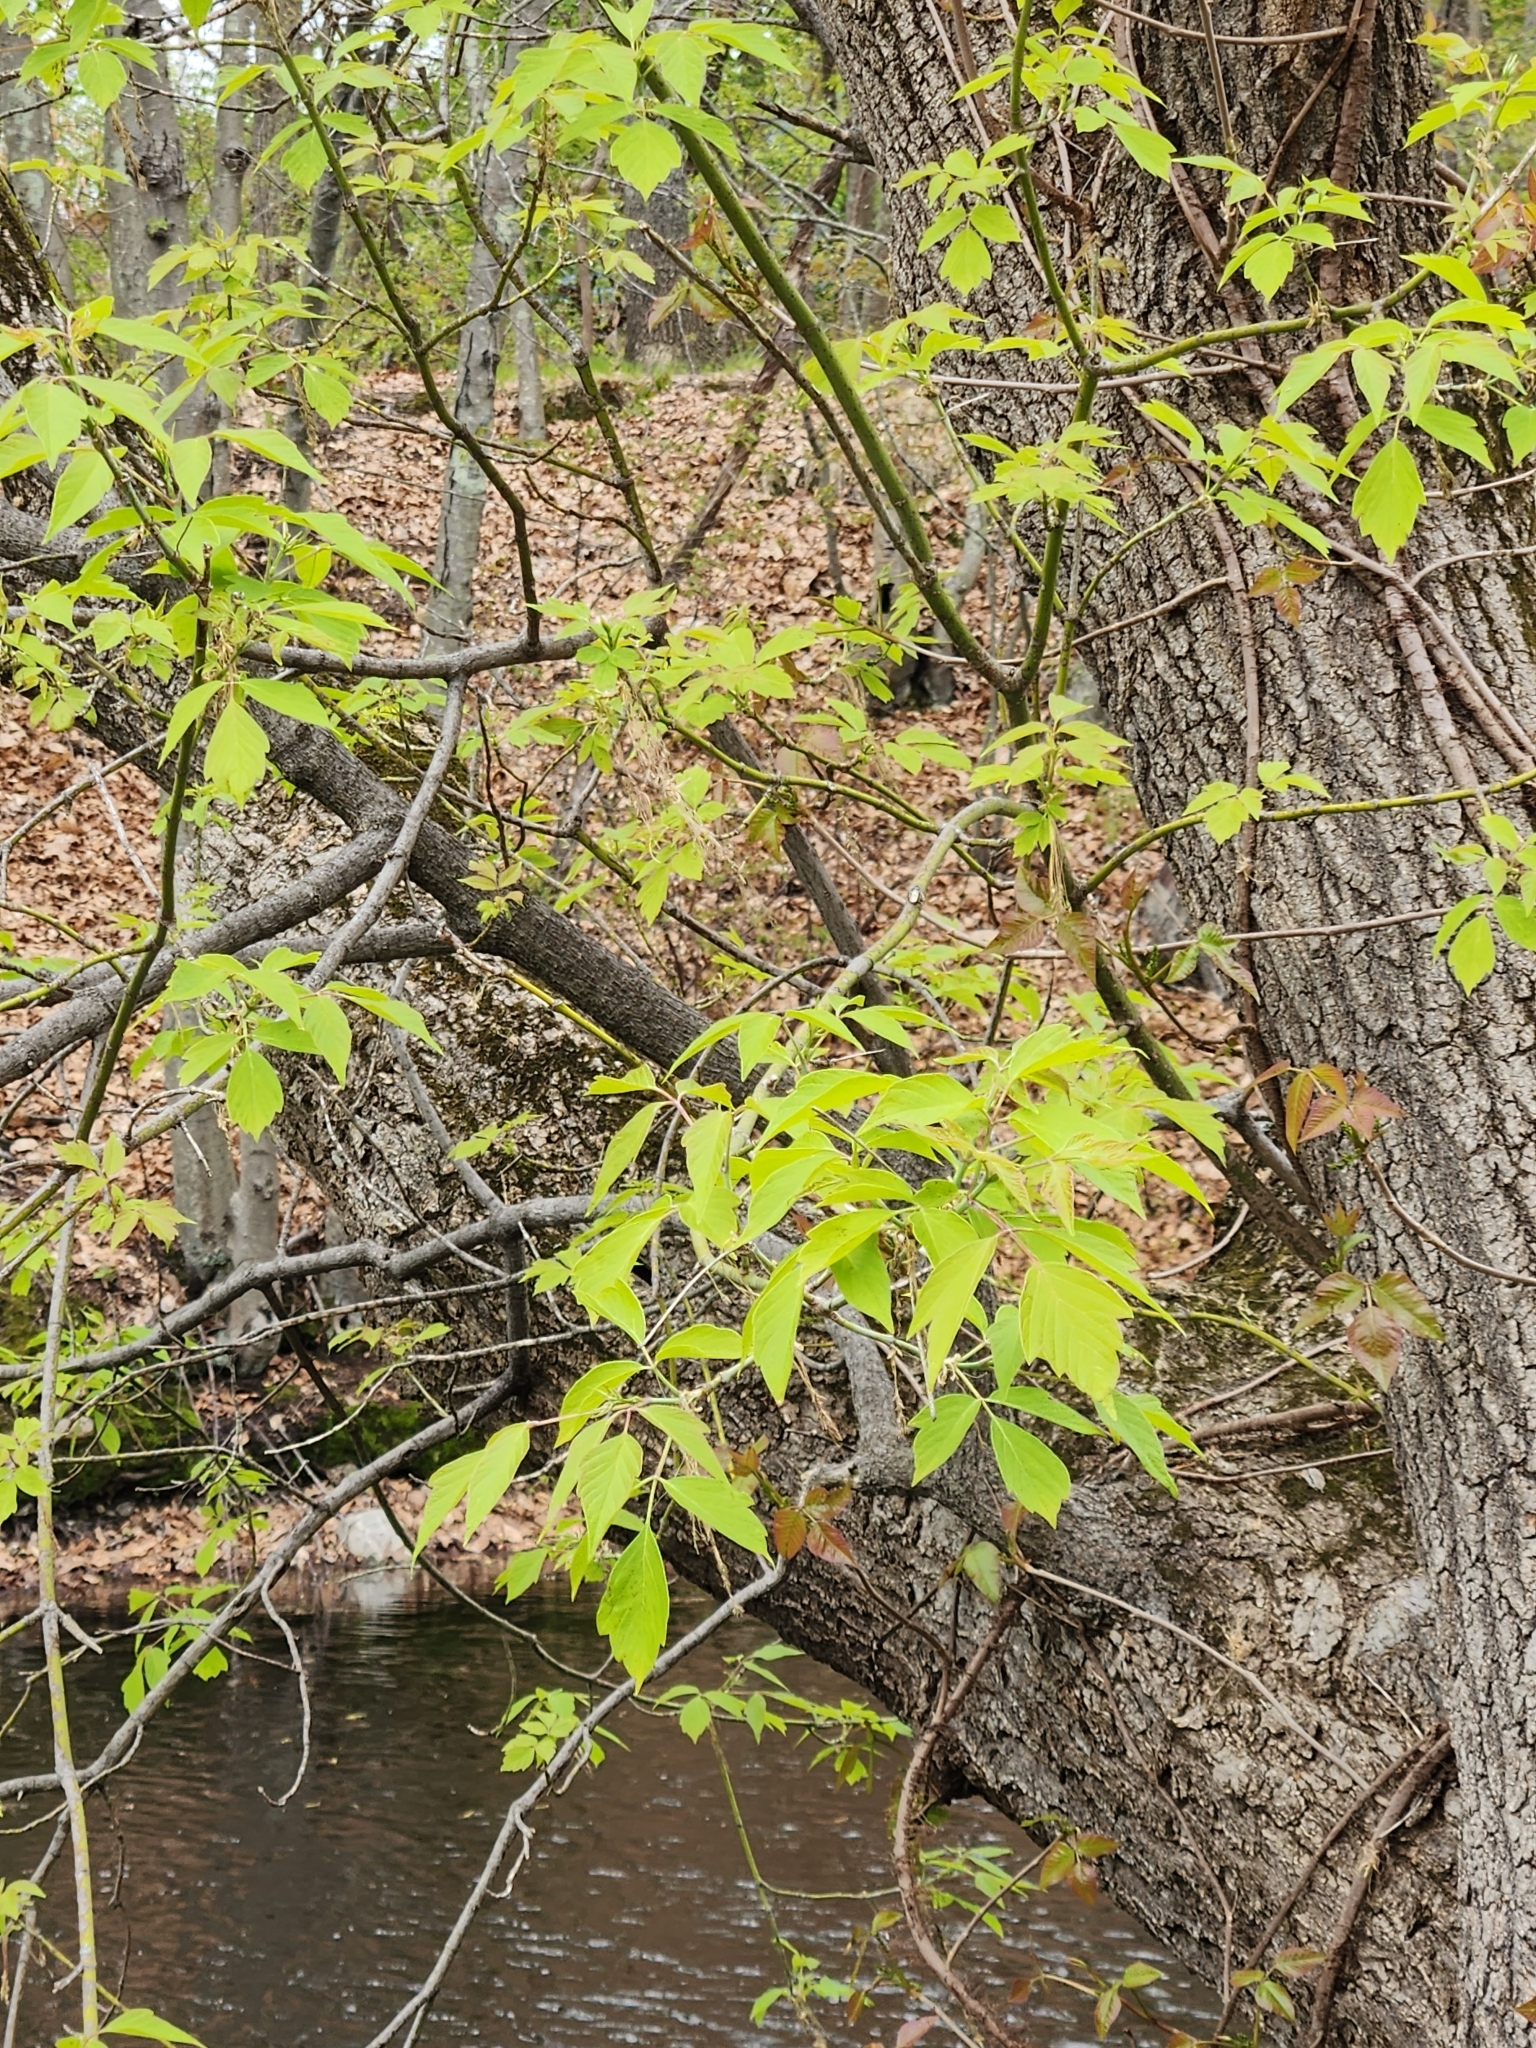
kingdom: Plantae
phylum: Tracheophyta
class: Magnoliopsida
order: Sapindales
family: Sapindaceae
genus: Acer
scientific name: Acer negundo
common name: Ashleaf maple
